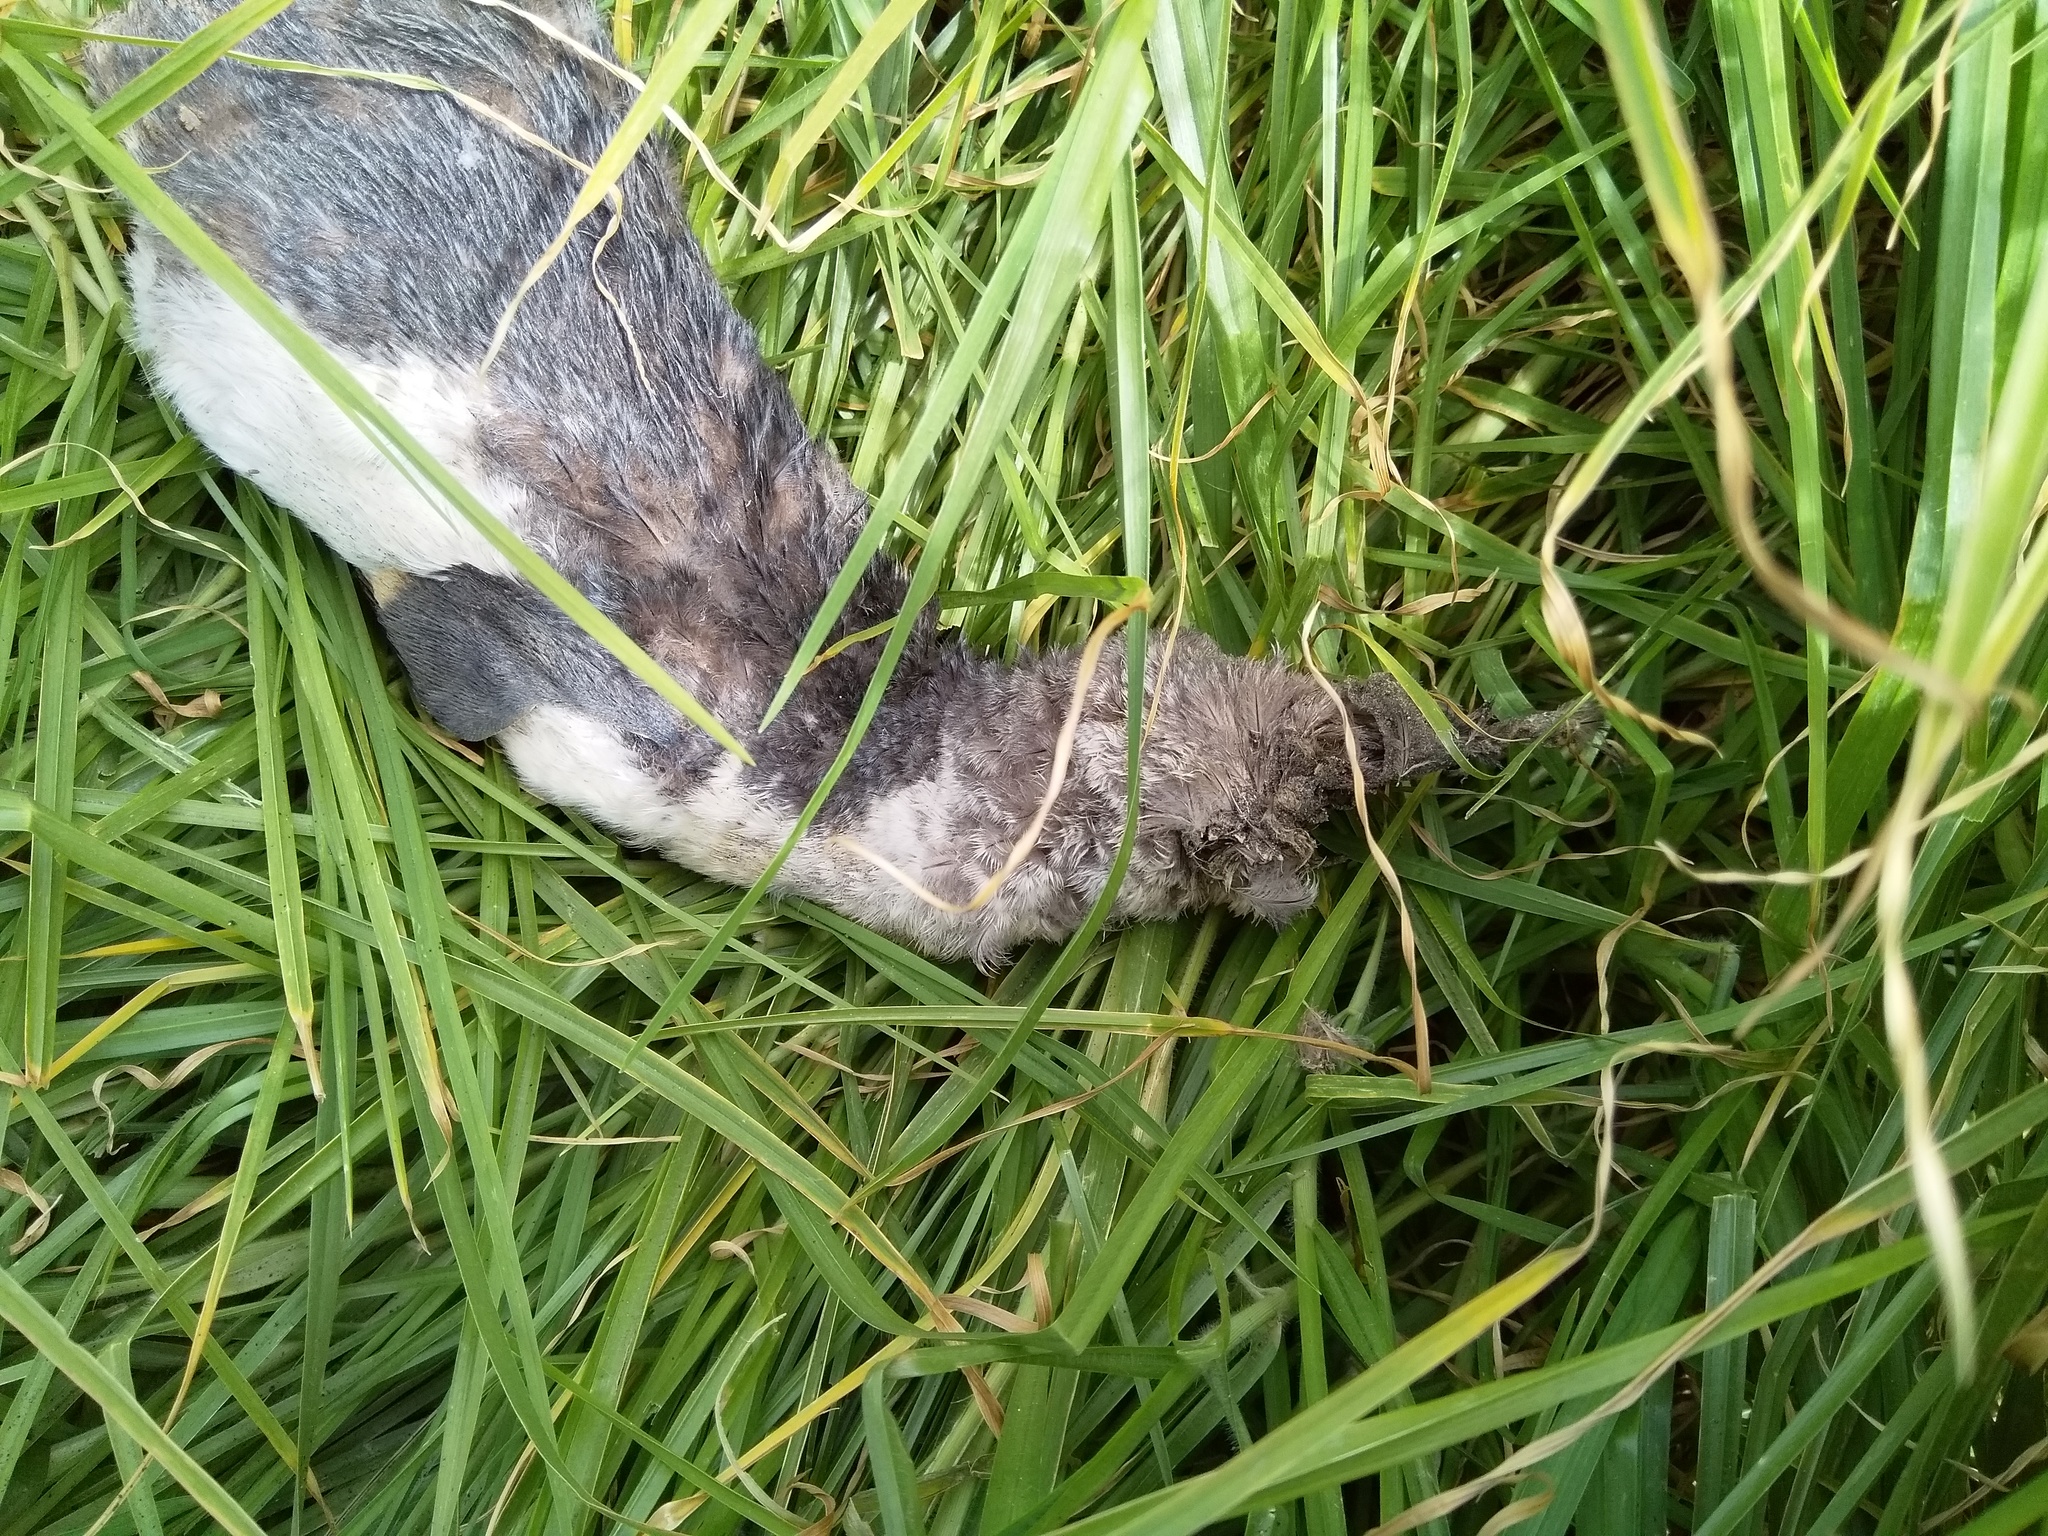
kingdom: Animalia
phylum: Chordata
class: Aves
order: Sphenisciformes
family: Spheniscidae
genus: Eudyptula
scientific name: Eudyptula minor
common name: Little penguin
